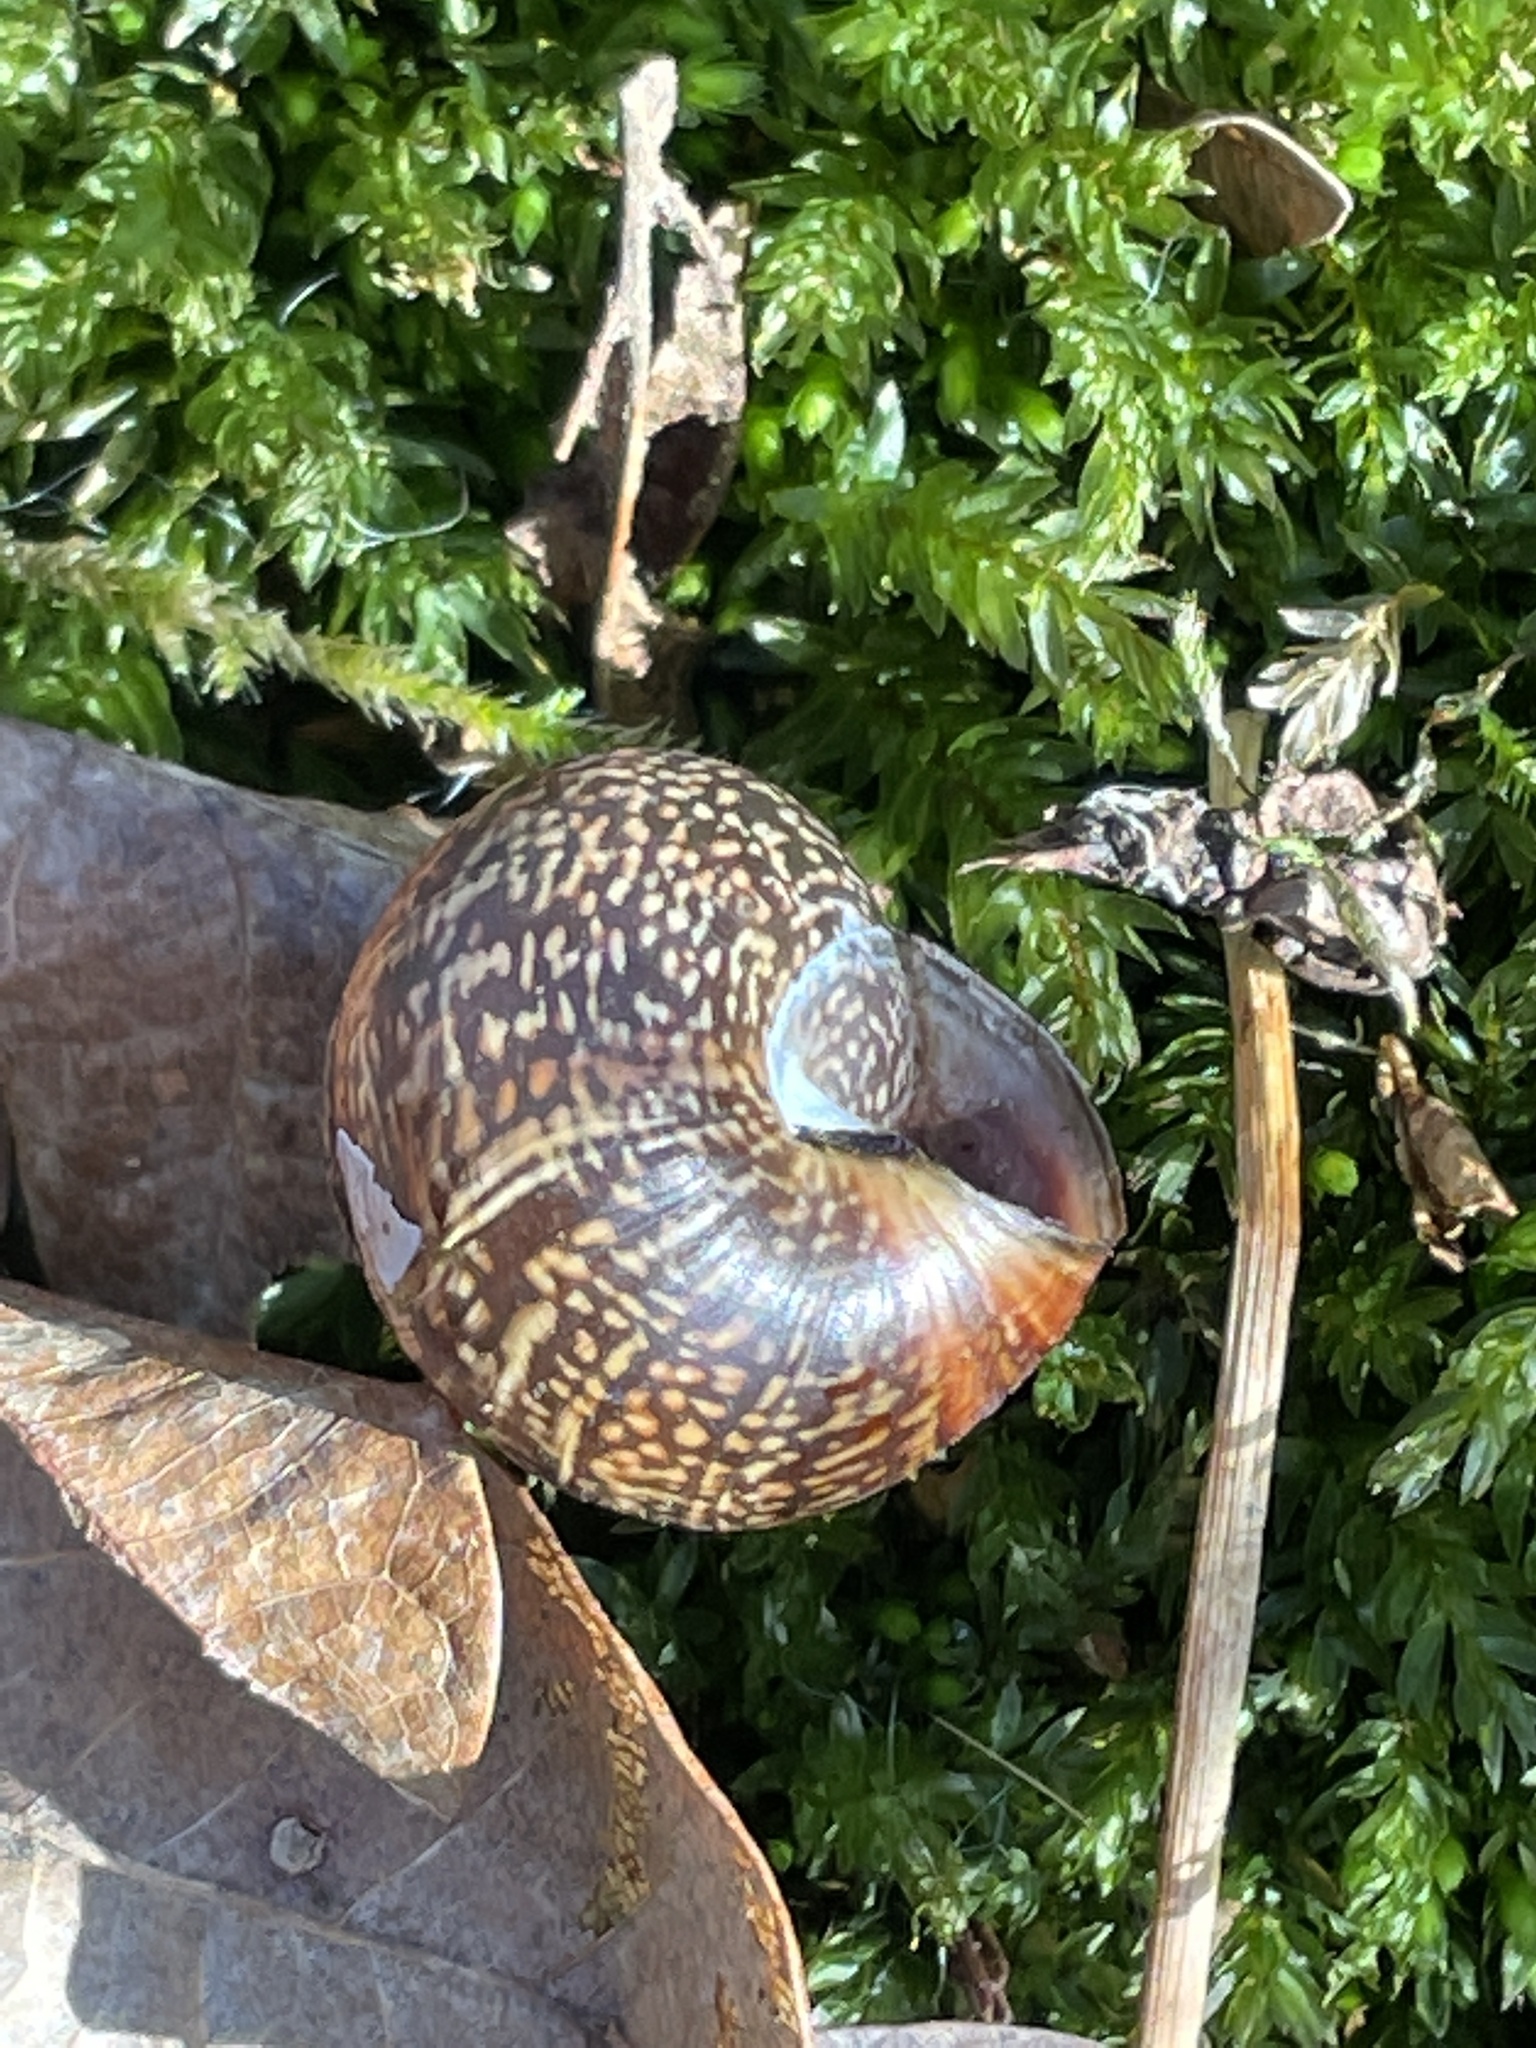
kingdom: Animalia
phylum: Mollusca
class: Gastropoda
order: Stylommatophora
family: Helicidae
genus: Arianta
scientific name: Arianta arbustorum
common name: Copse snail
